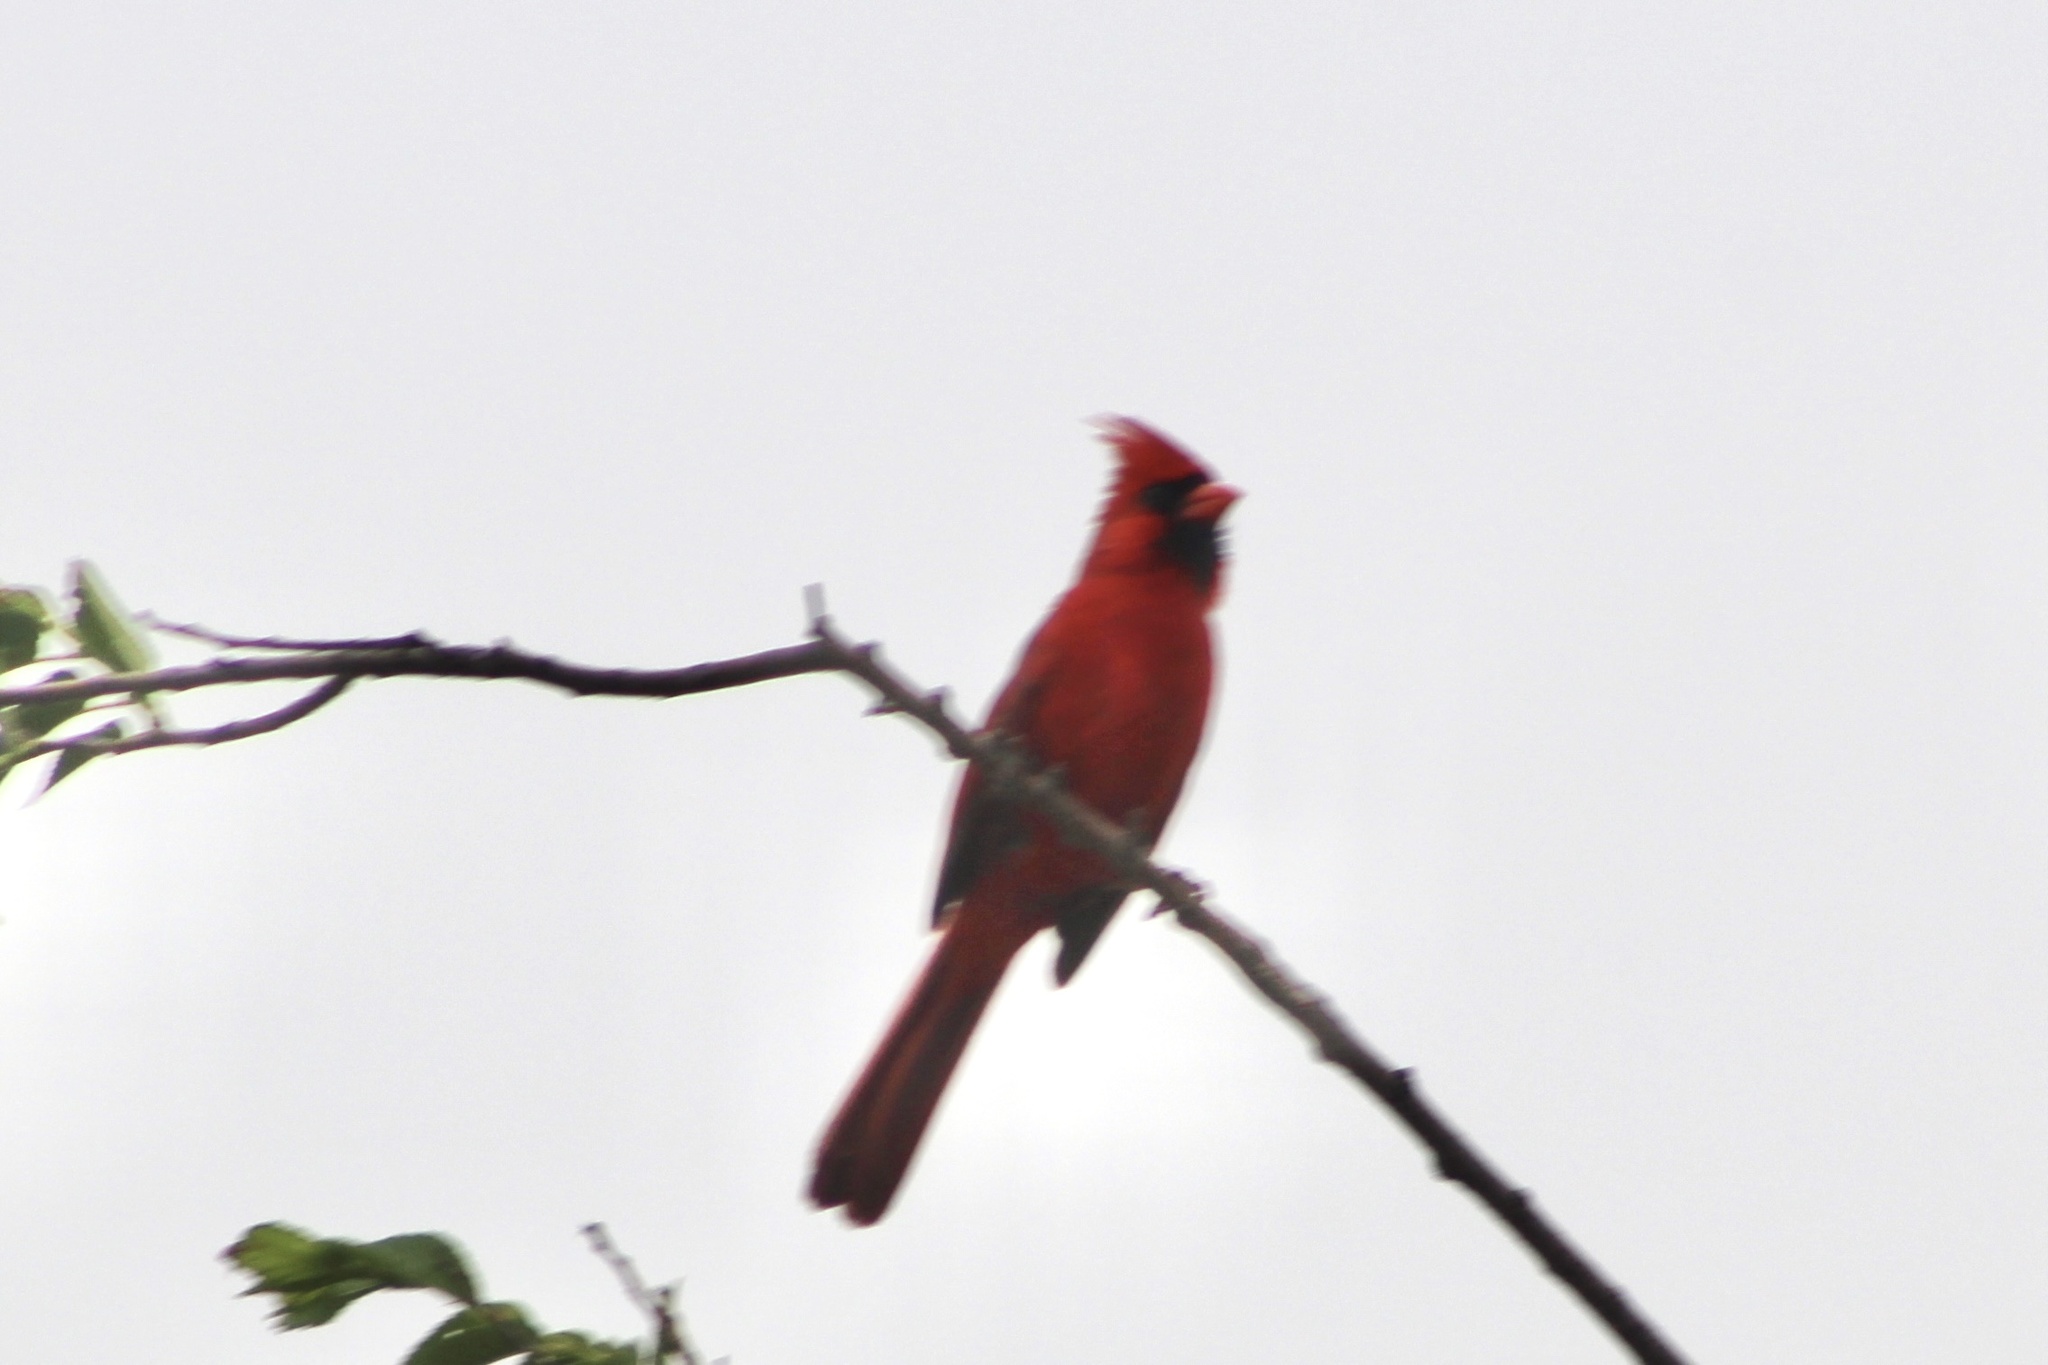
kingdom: Animalia
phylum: Chordata
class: Aves
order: Passeriformes
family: Cardinalidae
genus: Cardinalis
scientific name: Cardinalis cardinalis
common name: Northern cardinal
